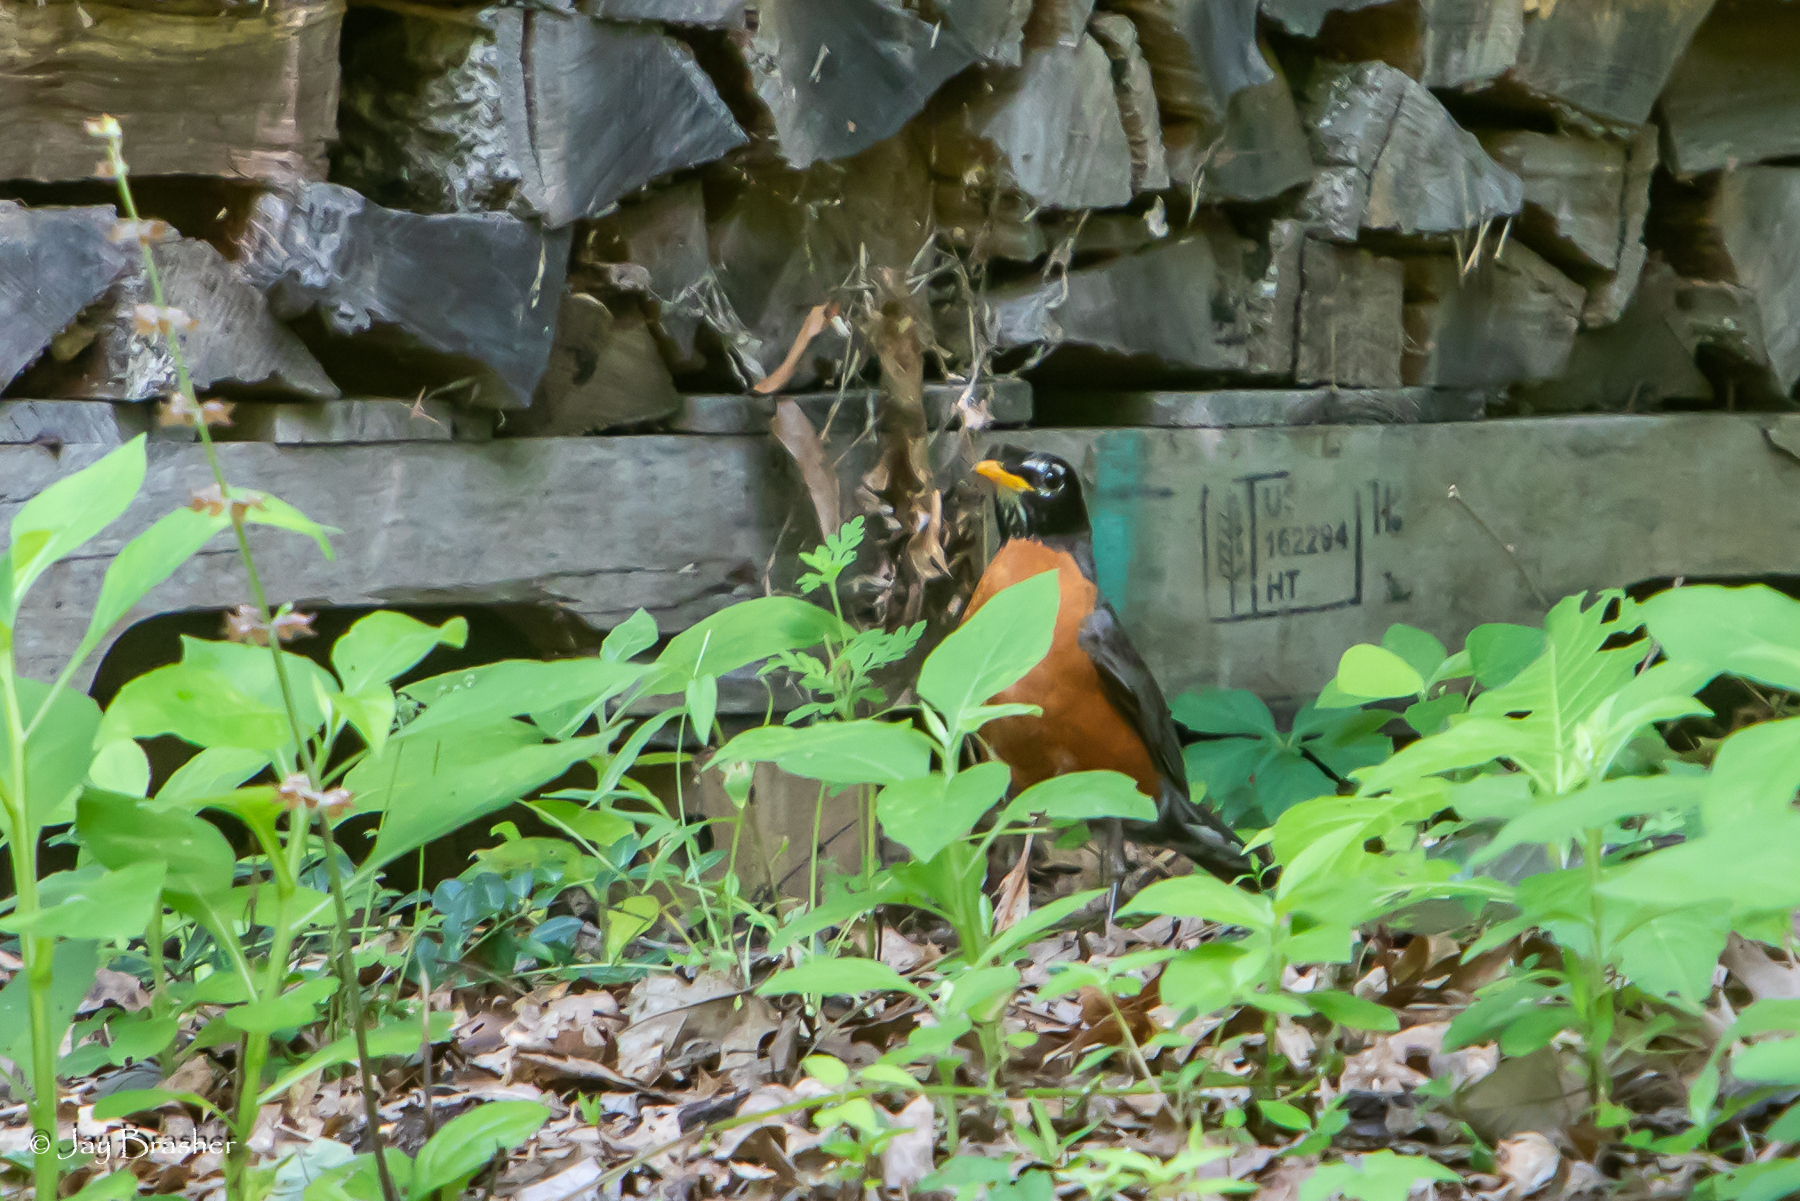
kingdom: Animalia
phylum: Chordata
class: Aves
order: Passeriformes
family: Turdidae
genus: Turdus
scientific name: Turdus migratorius
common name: American robin
